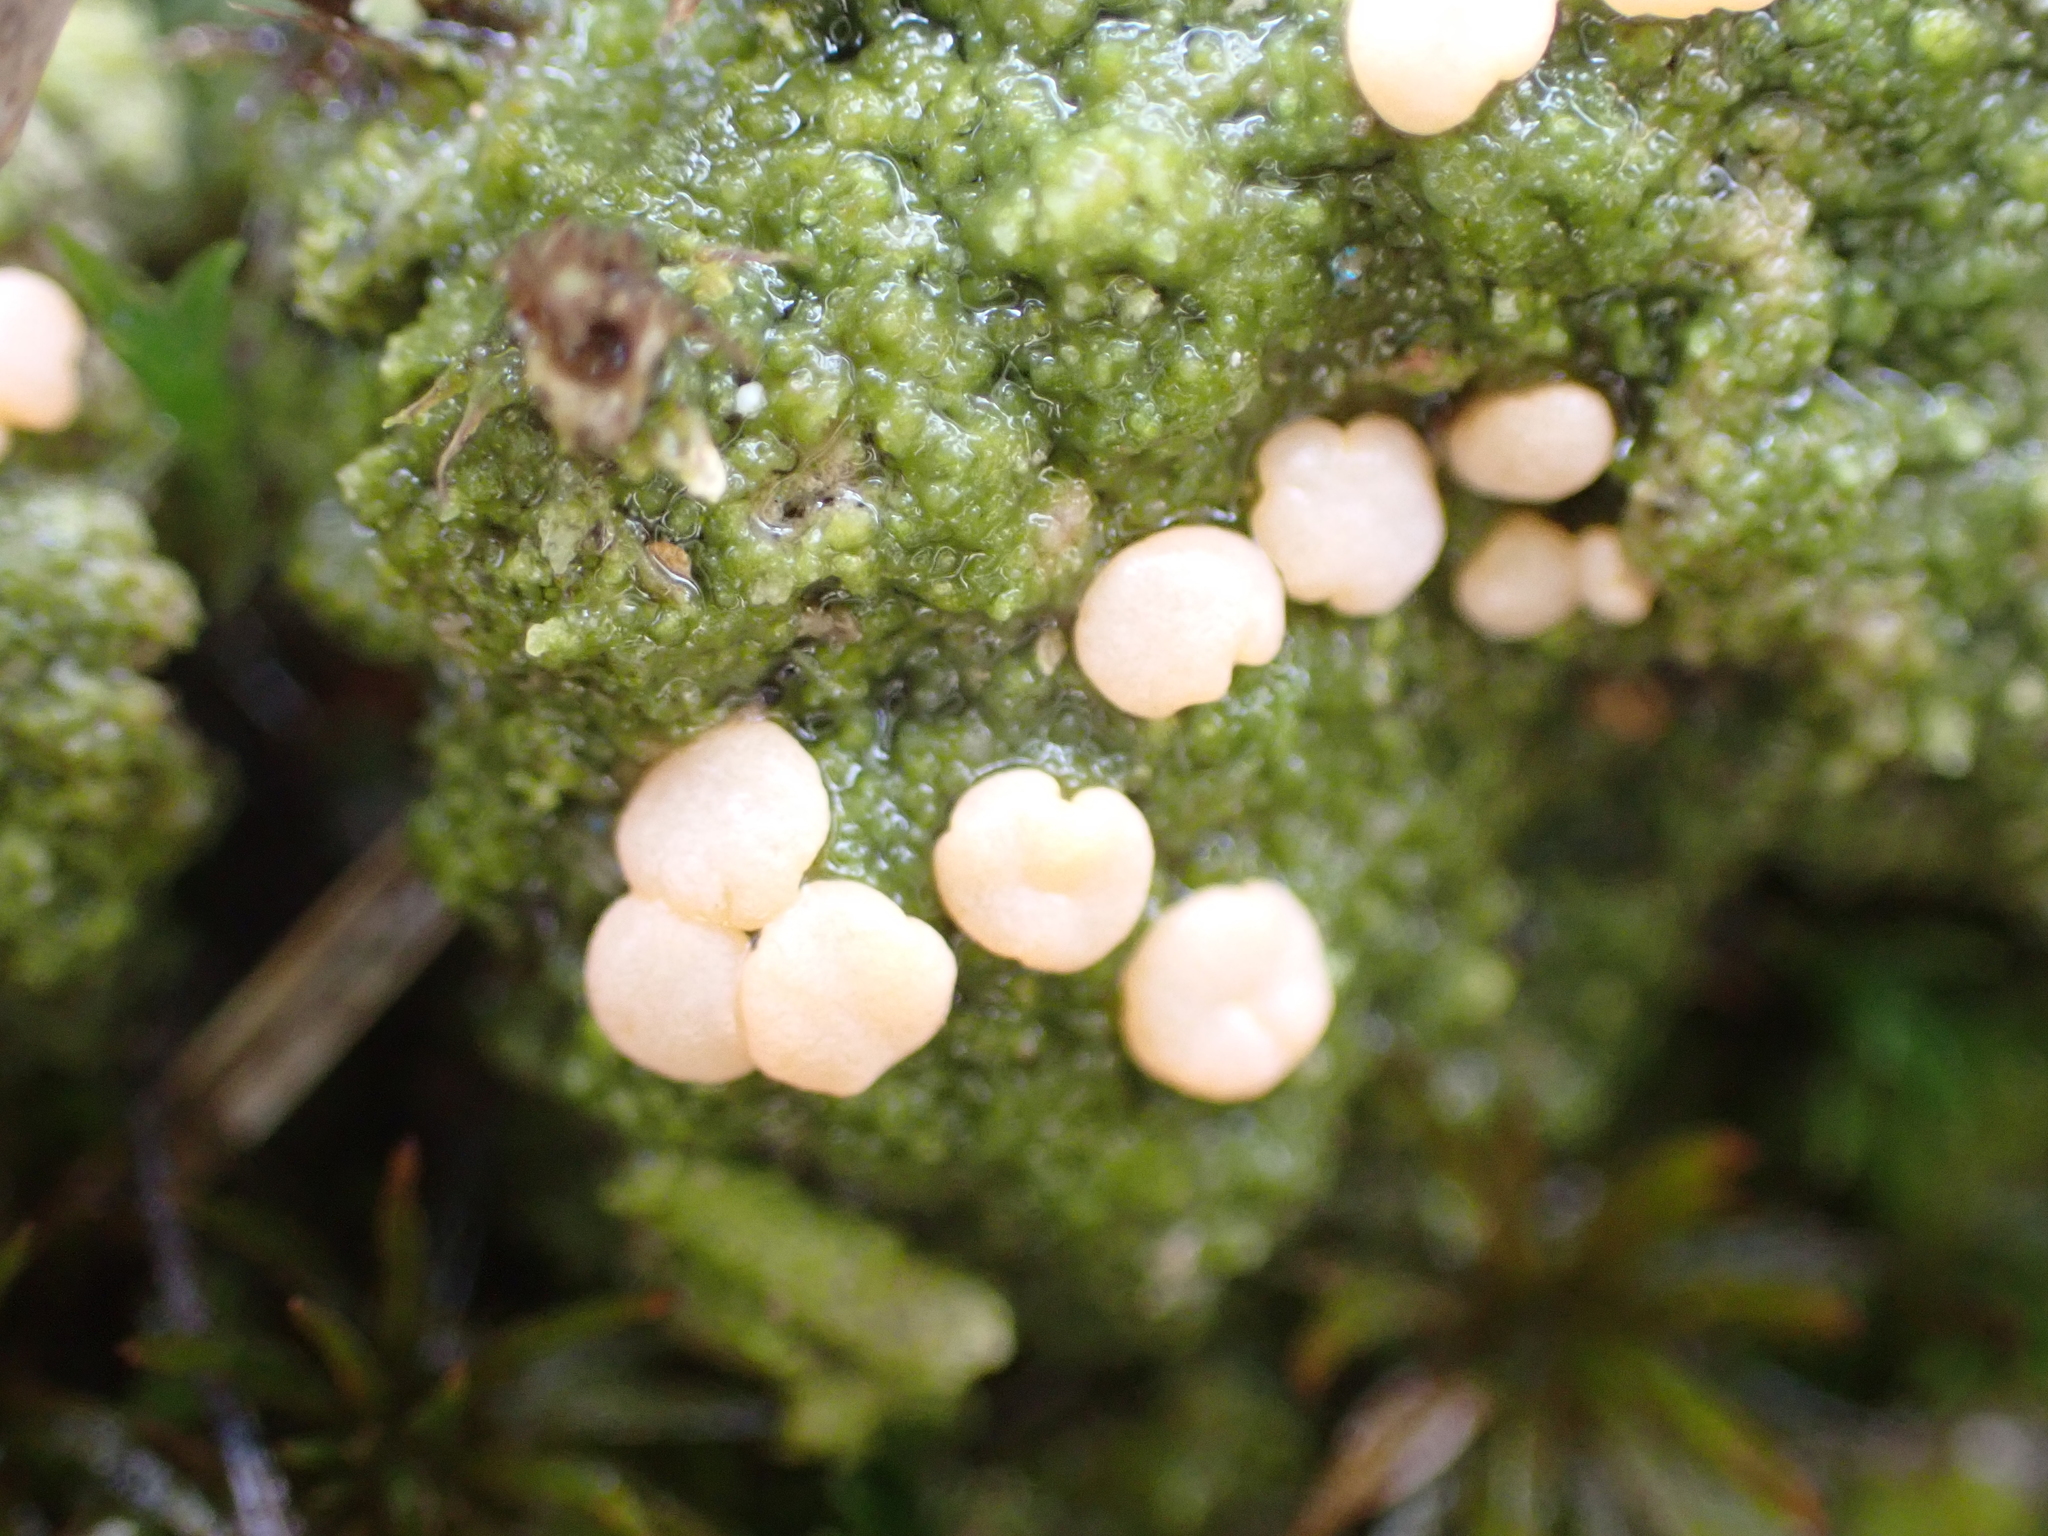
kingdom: Fungi
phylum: Ascomycota
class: Lecanoromycetes
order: Pertusariales
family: Icmadophilaceae
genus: Dibaeis
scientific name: Dibaeis absoluta
